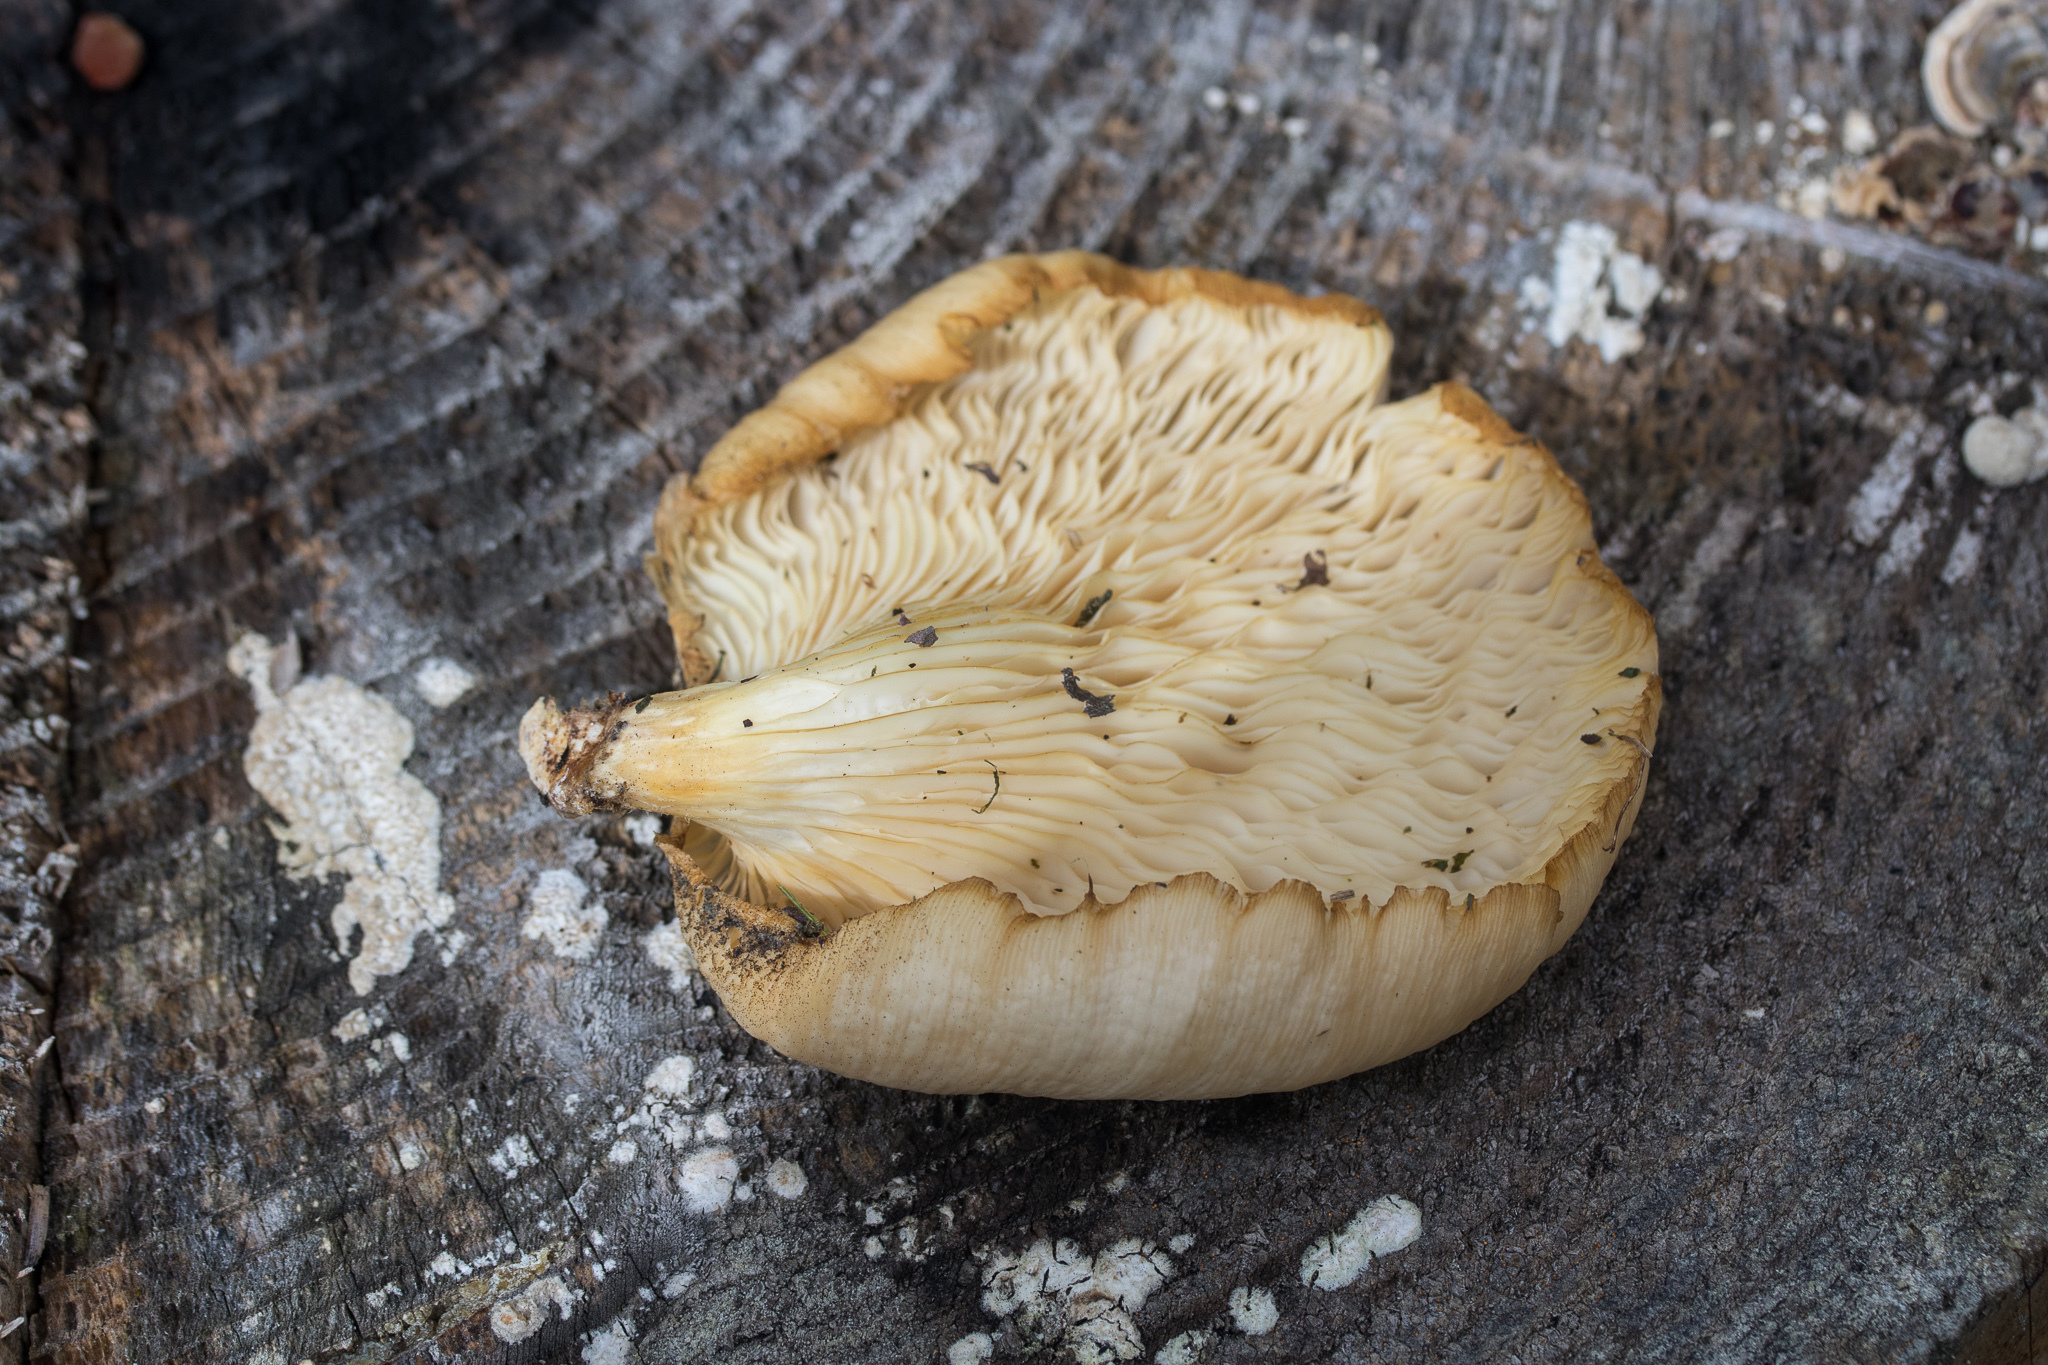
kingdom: Fungi
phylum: Basidiomycota
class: Agaricomycetes
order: Agaricales
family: Pleurotaceae
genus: Pleurotus
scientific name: Pleurotus pulmonarius
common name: Pale oyster
